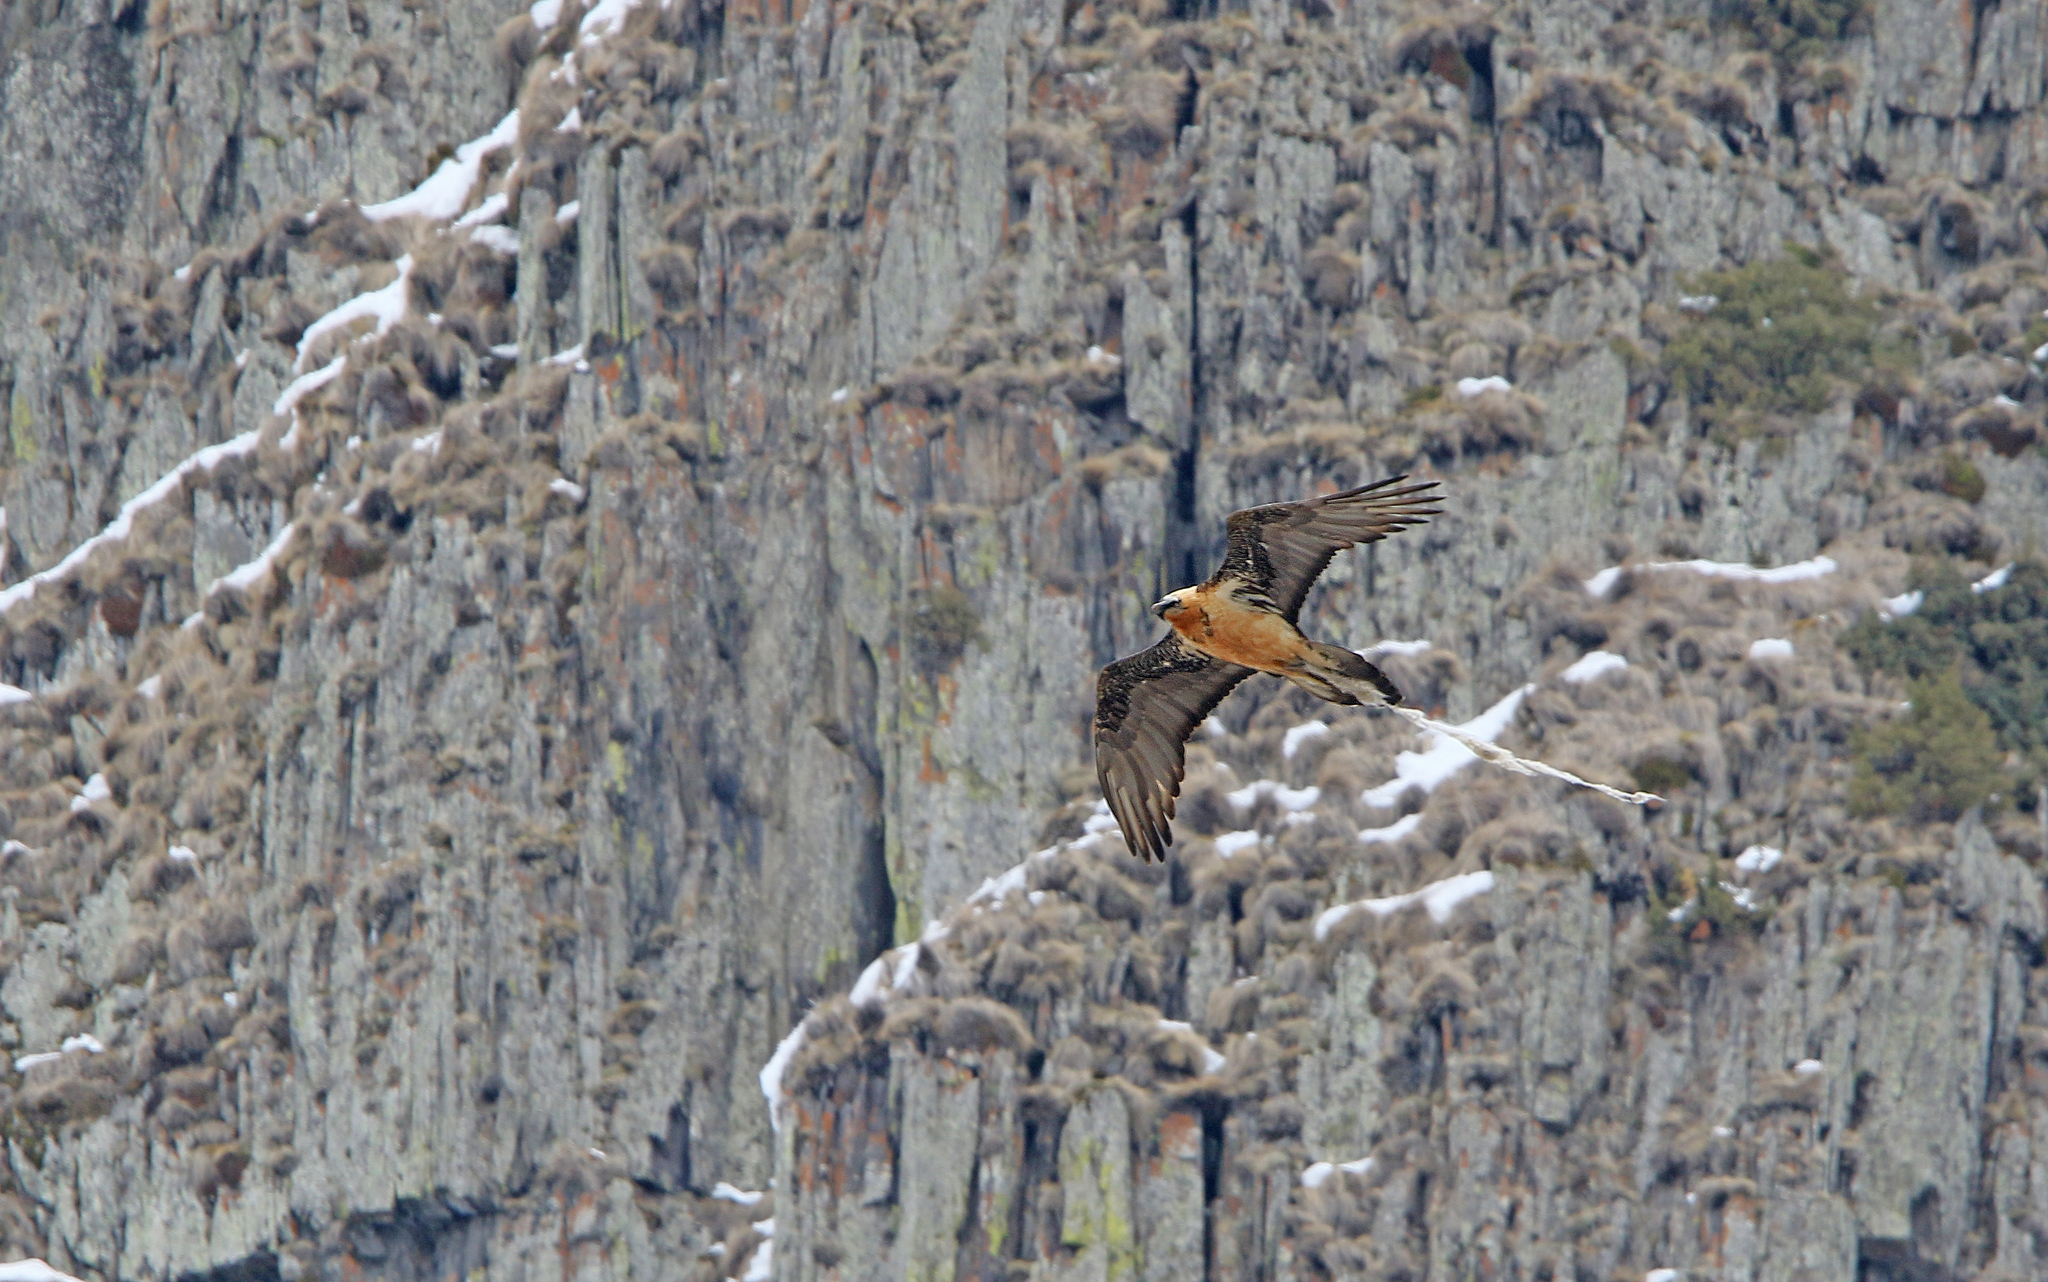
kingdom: Animalia
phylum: Chordata
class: Aves
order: Accipitriformes
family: Accipitridae
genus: Gypaetus
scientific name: Gypaetus barbatus
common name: Bearded vulture
